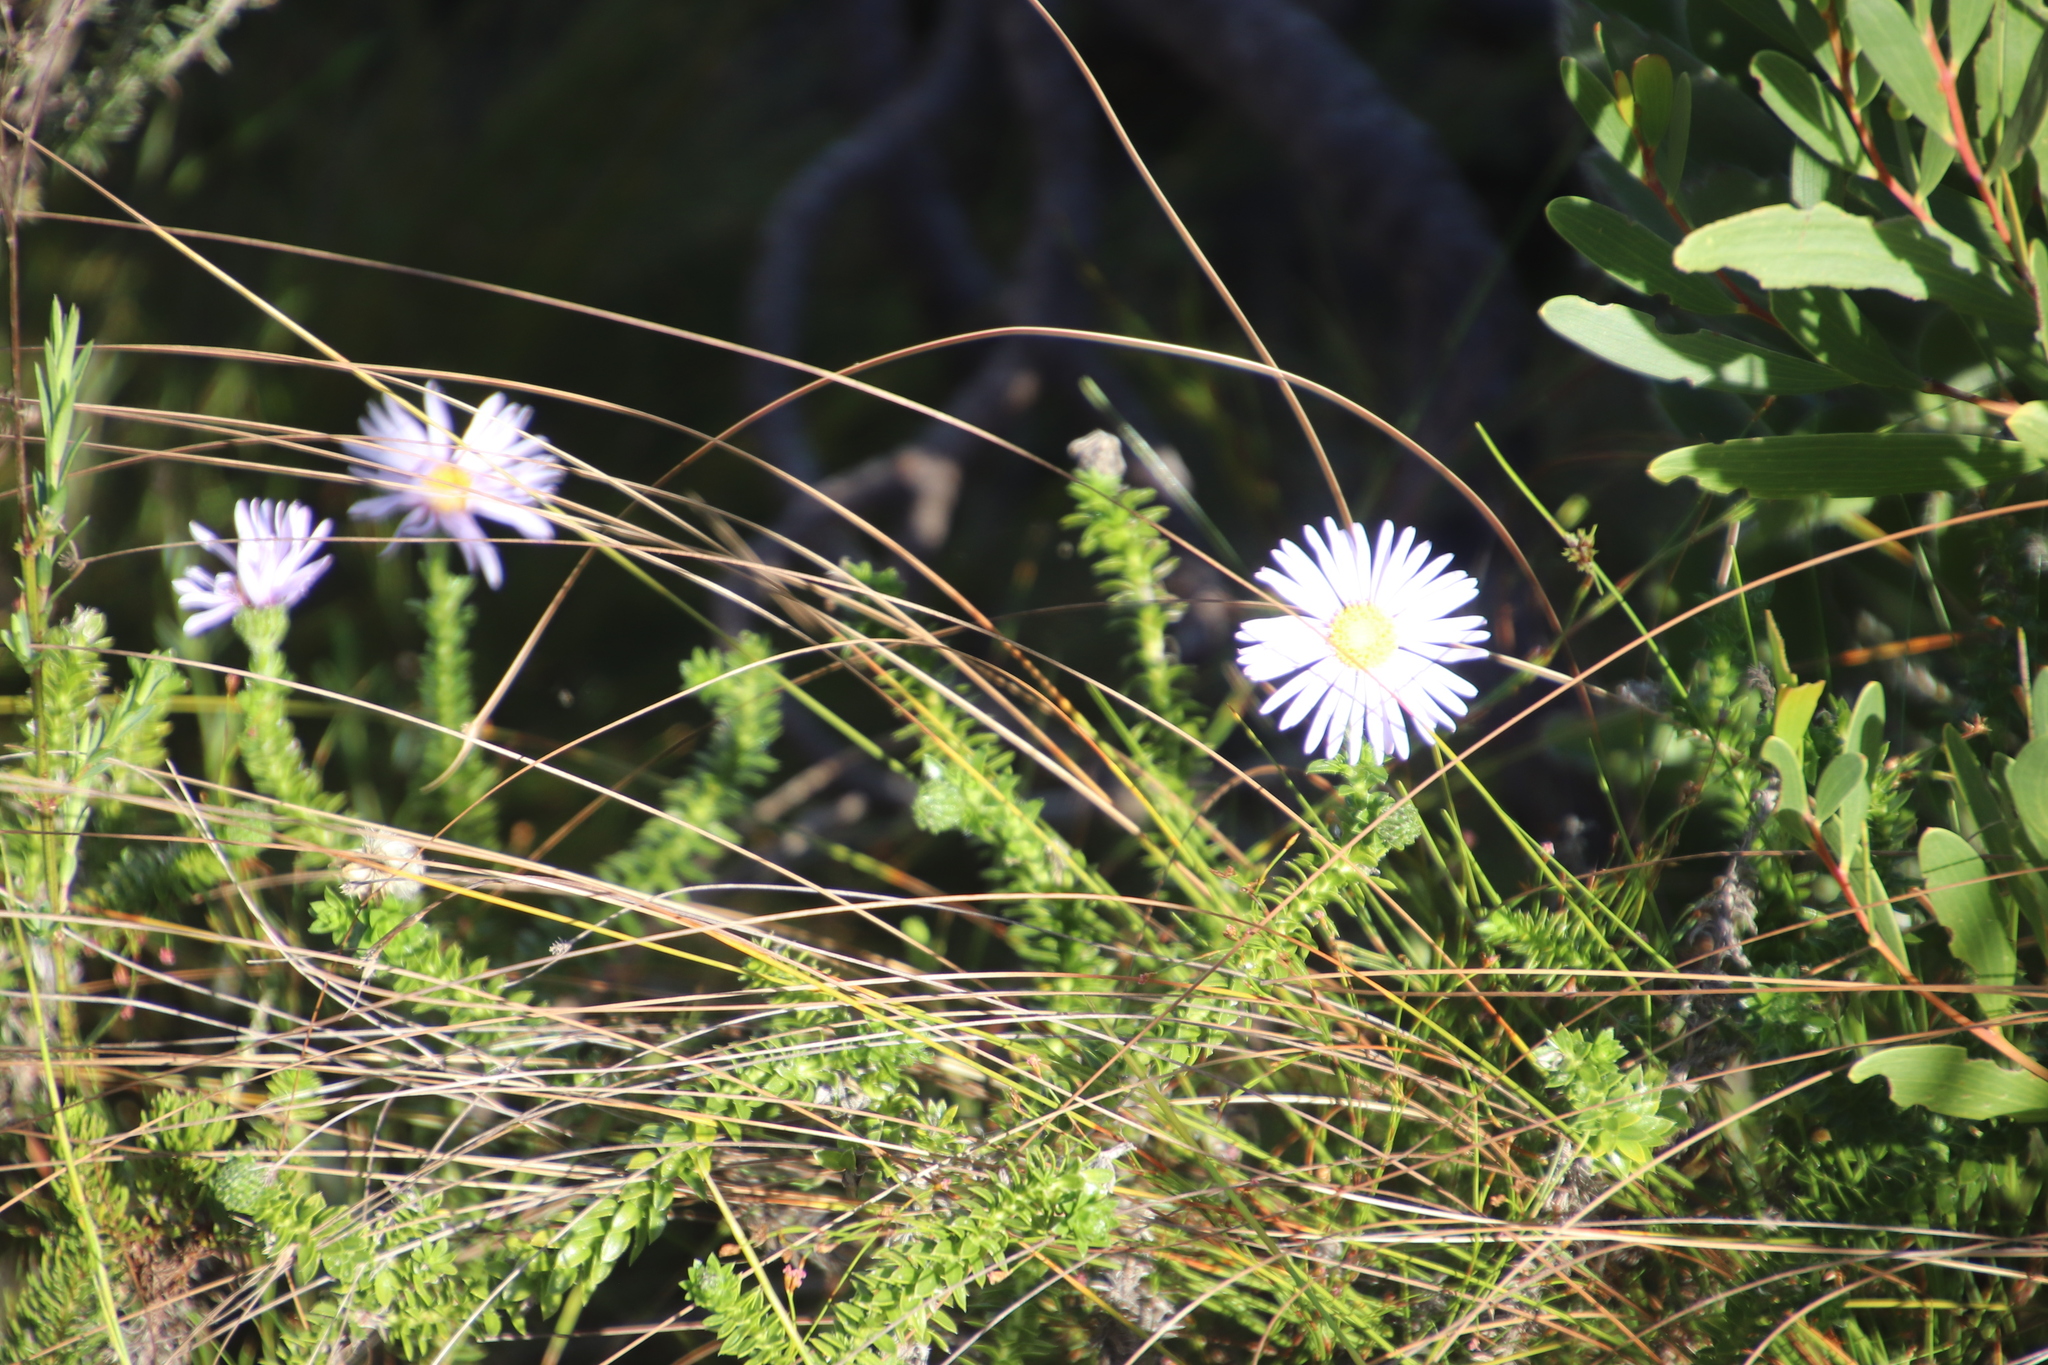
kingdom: Plantae
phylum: Tracheophyta
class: Magnoliopsida
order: Asterales
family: Asteraceae
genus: Felicia
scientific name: Felicia echinata
